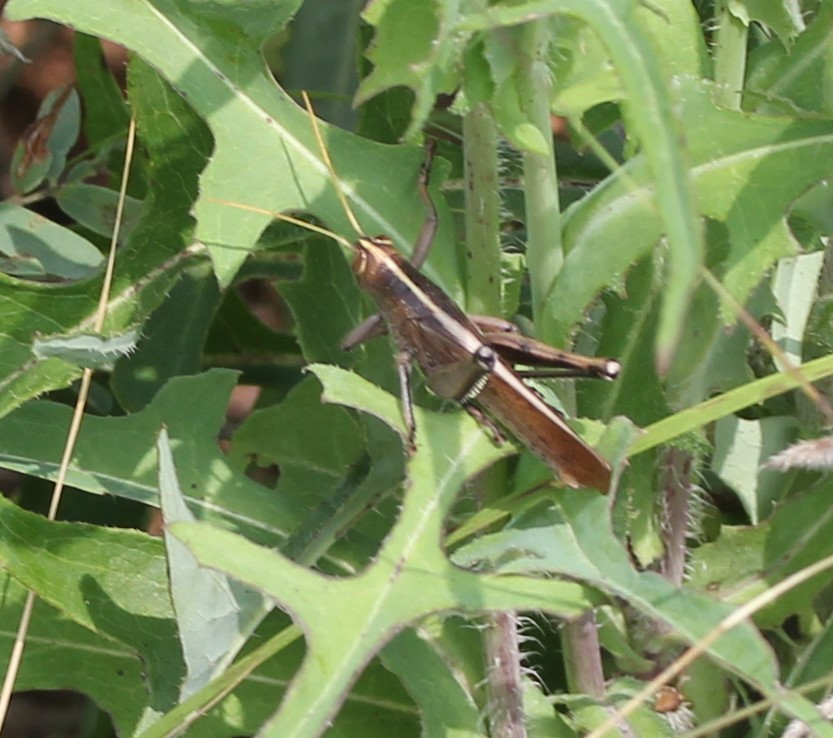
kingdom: Animalia
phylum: Arthropoda
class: Insecta
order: Orthoptera
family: Acrididae
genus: Schistocerca
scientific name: Schistocerca lineata
